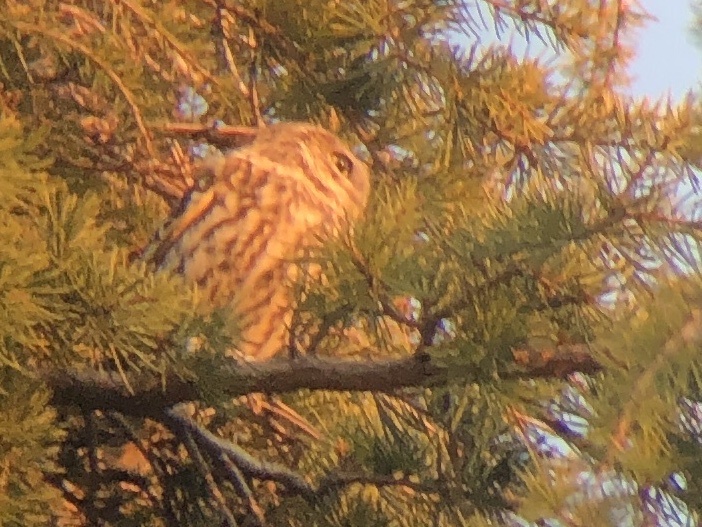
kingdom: Animalia
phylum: Chordata
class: Aves
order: Strigiformes
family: Strigidae
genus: Athene
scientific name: Athene noctua
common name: Little owl
